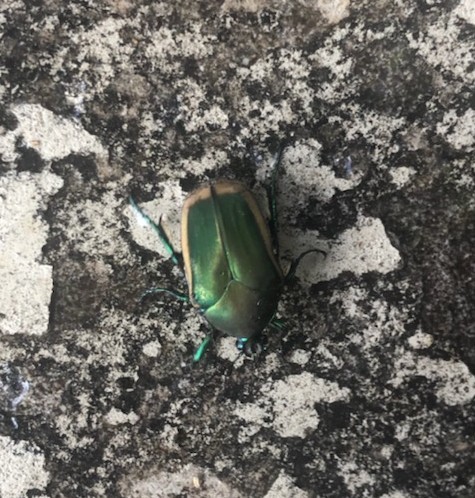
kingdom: Animalia
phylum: Arthropoda
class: Insecta
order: Coleoptera
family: Scarabaeidae
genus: Cotinis
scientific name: Cotinis mutabilis
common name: Figeater beetle
